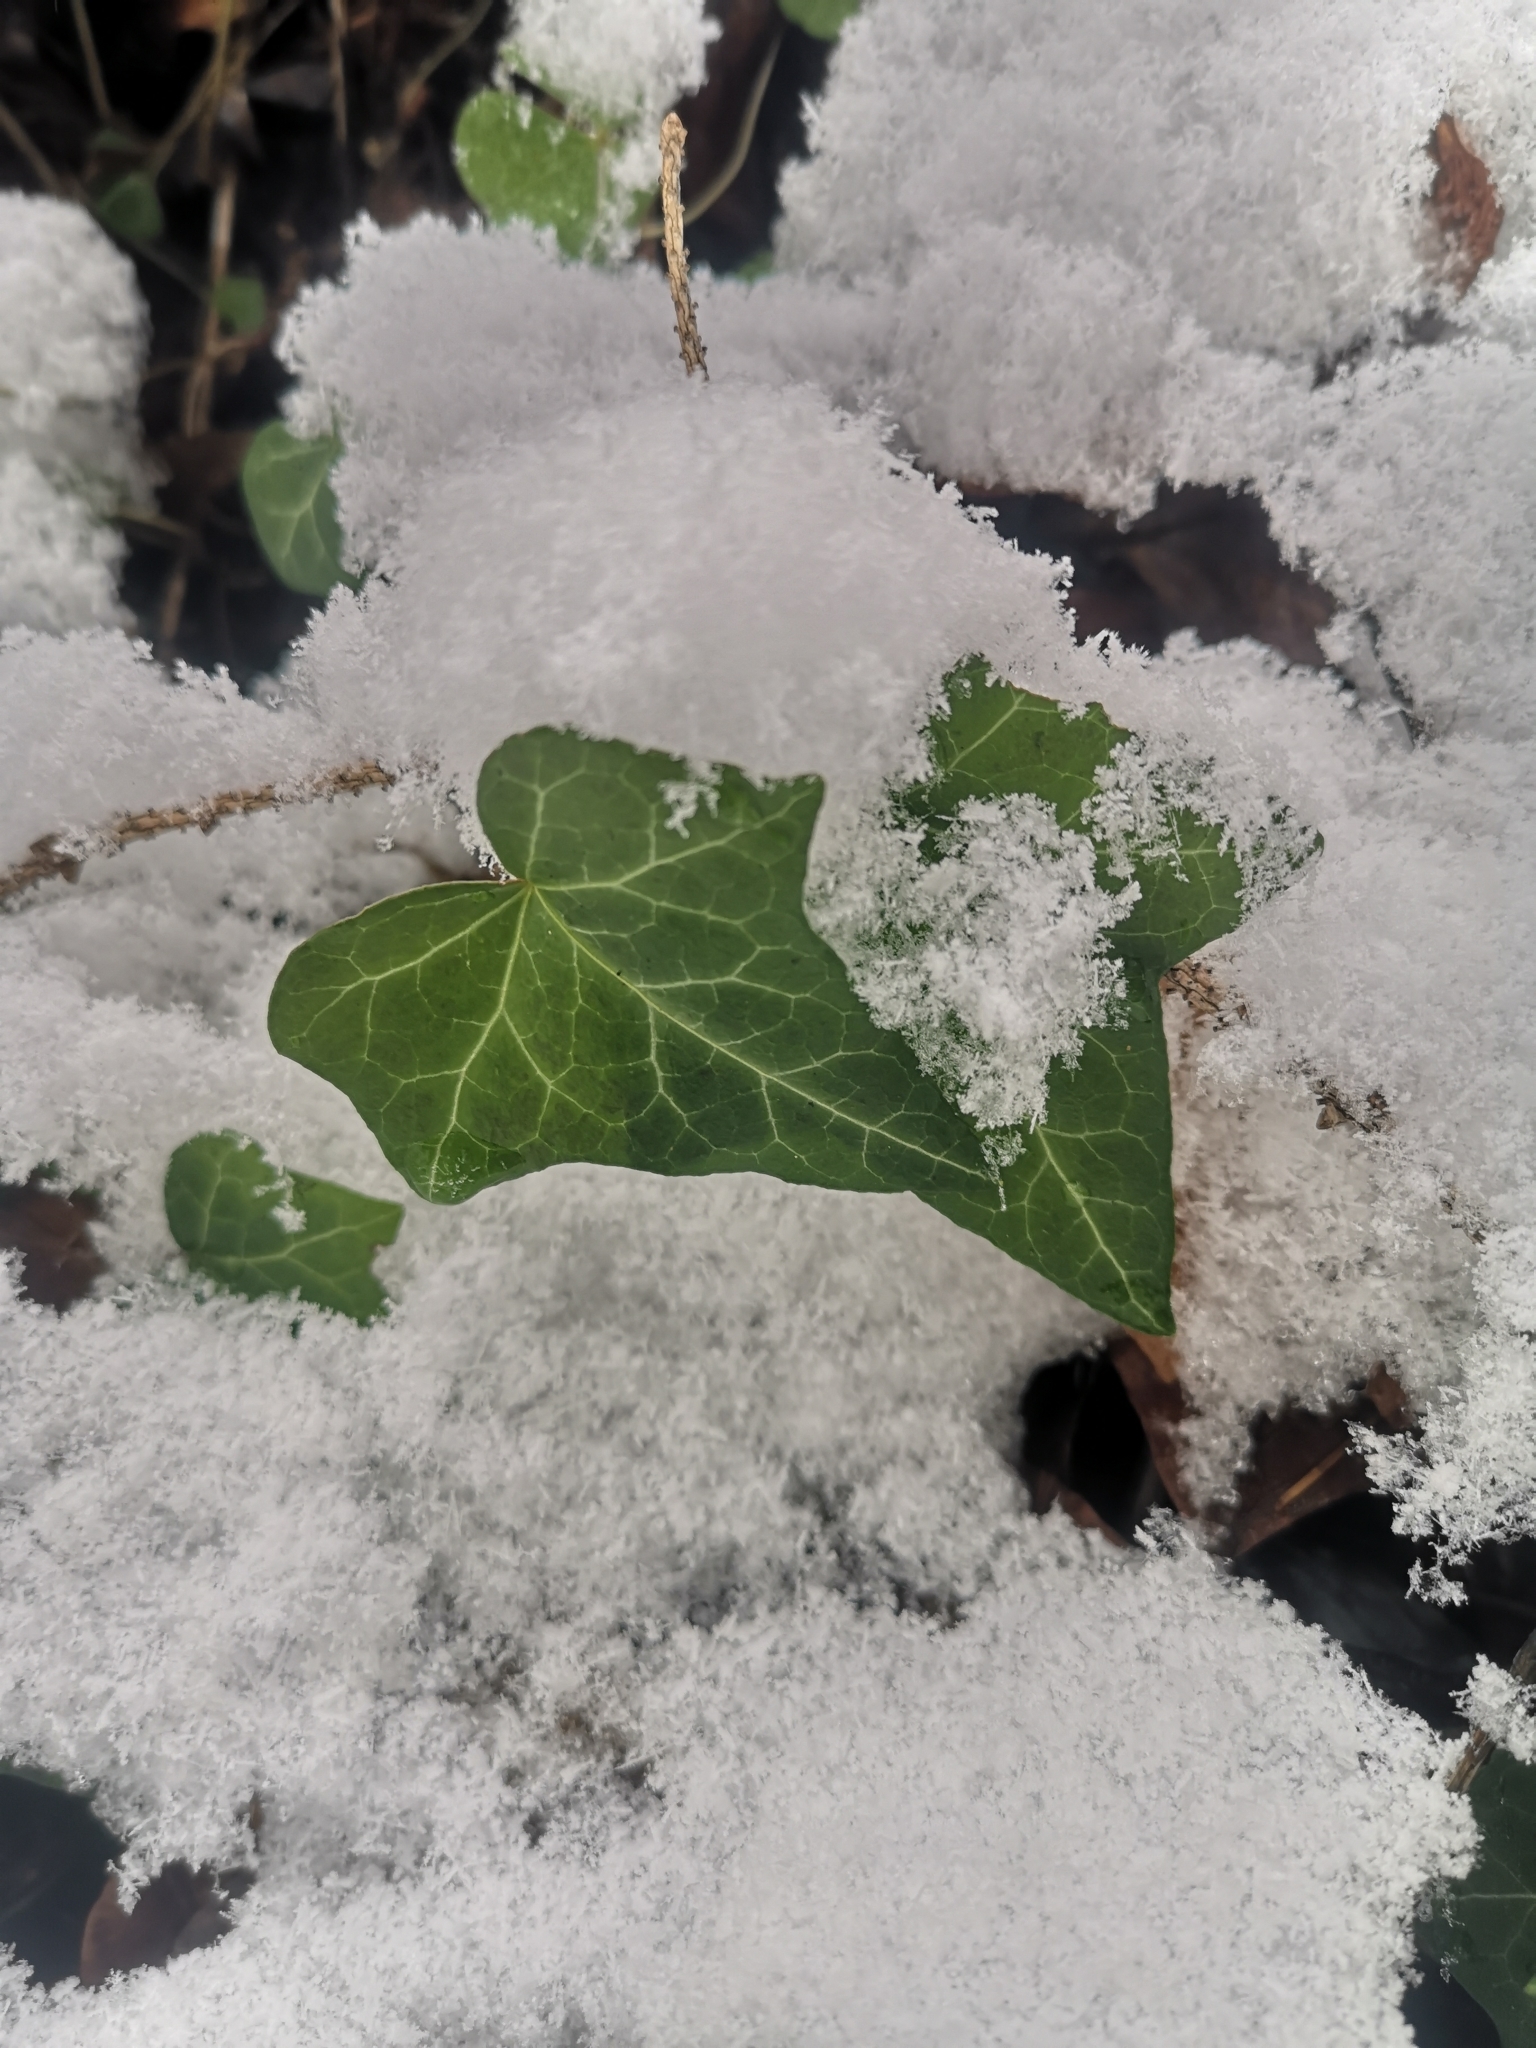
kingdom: Plantae
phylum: Tracheophyta
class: Magnoliopsida
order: Apiales
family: Araliaceae
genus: Hedera
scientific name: Hedera helix
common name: Ivy
